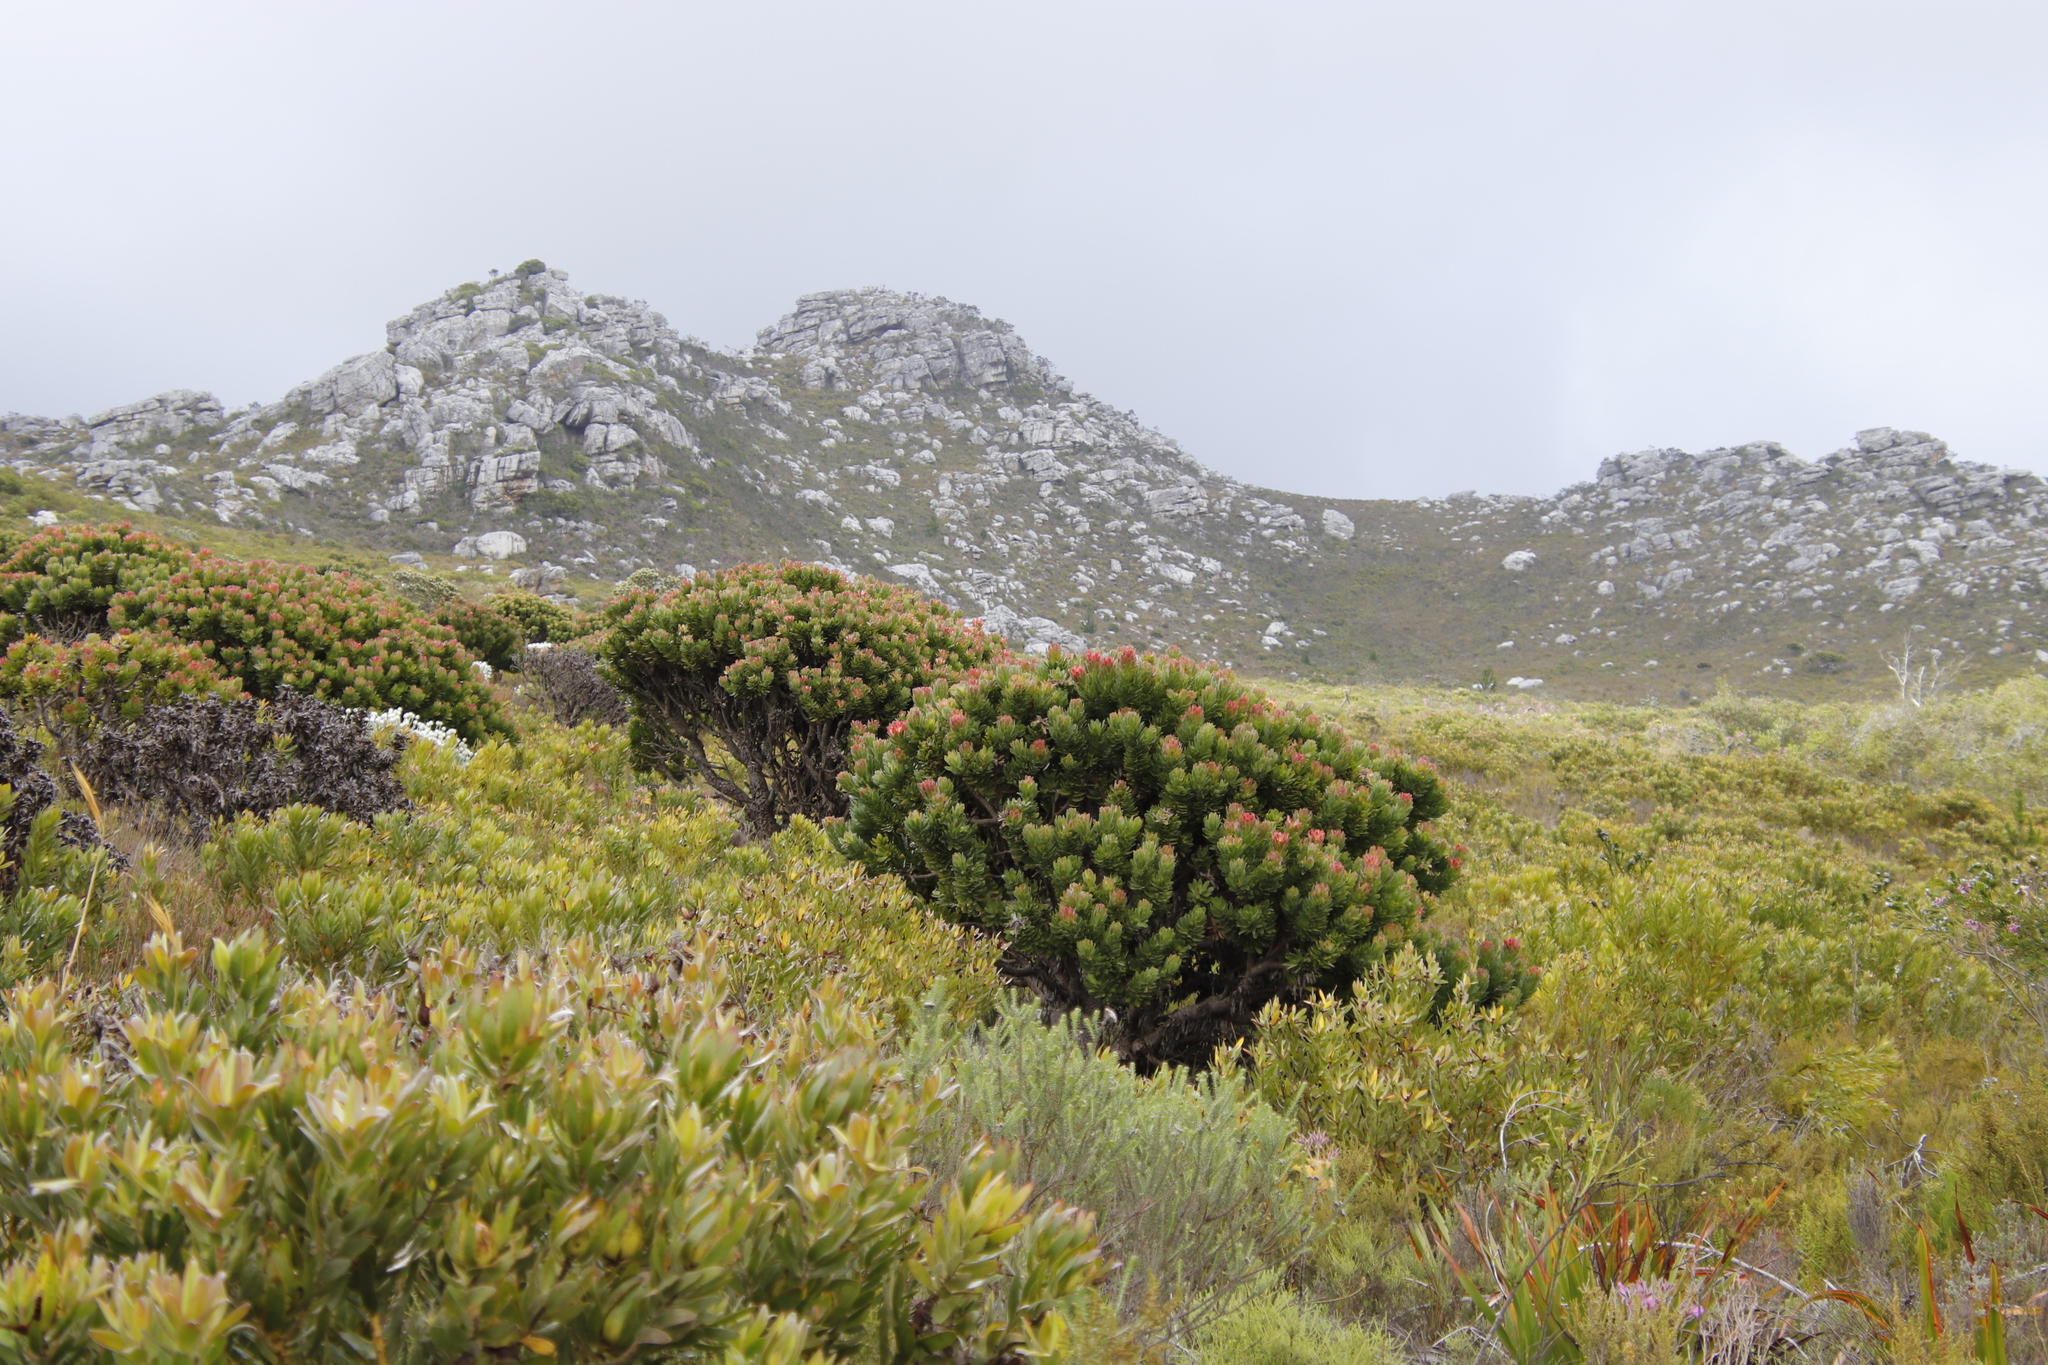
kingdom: Plantae
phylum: Tracheophyta
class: Magnoliopsida
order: Proteales
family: Proteaceae
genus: Mimetes
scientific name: Mimetes fimbriifolius
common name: Fringed bottlebrush
